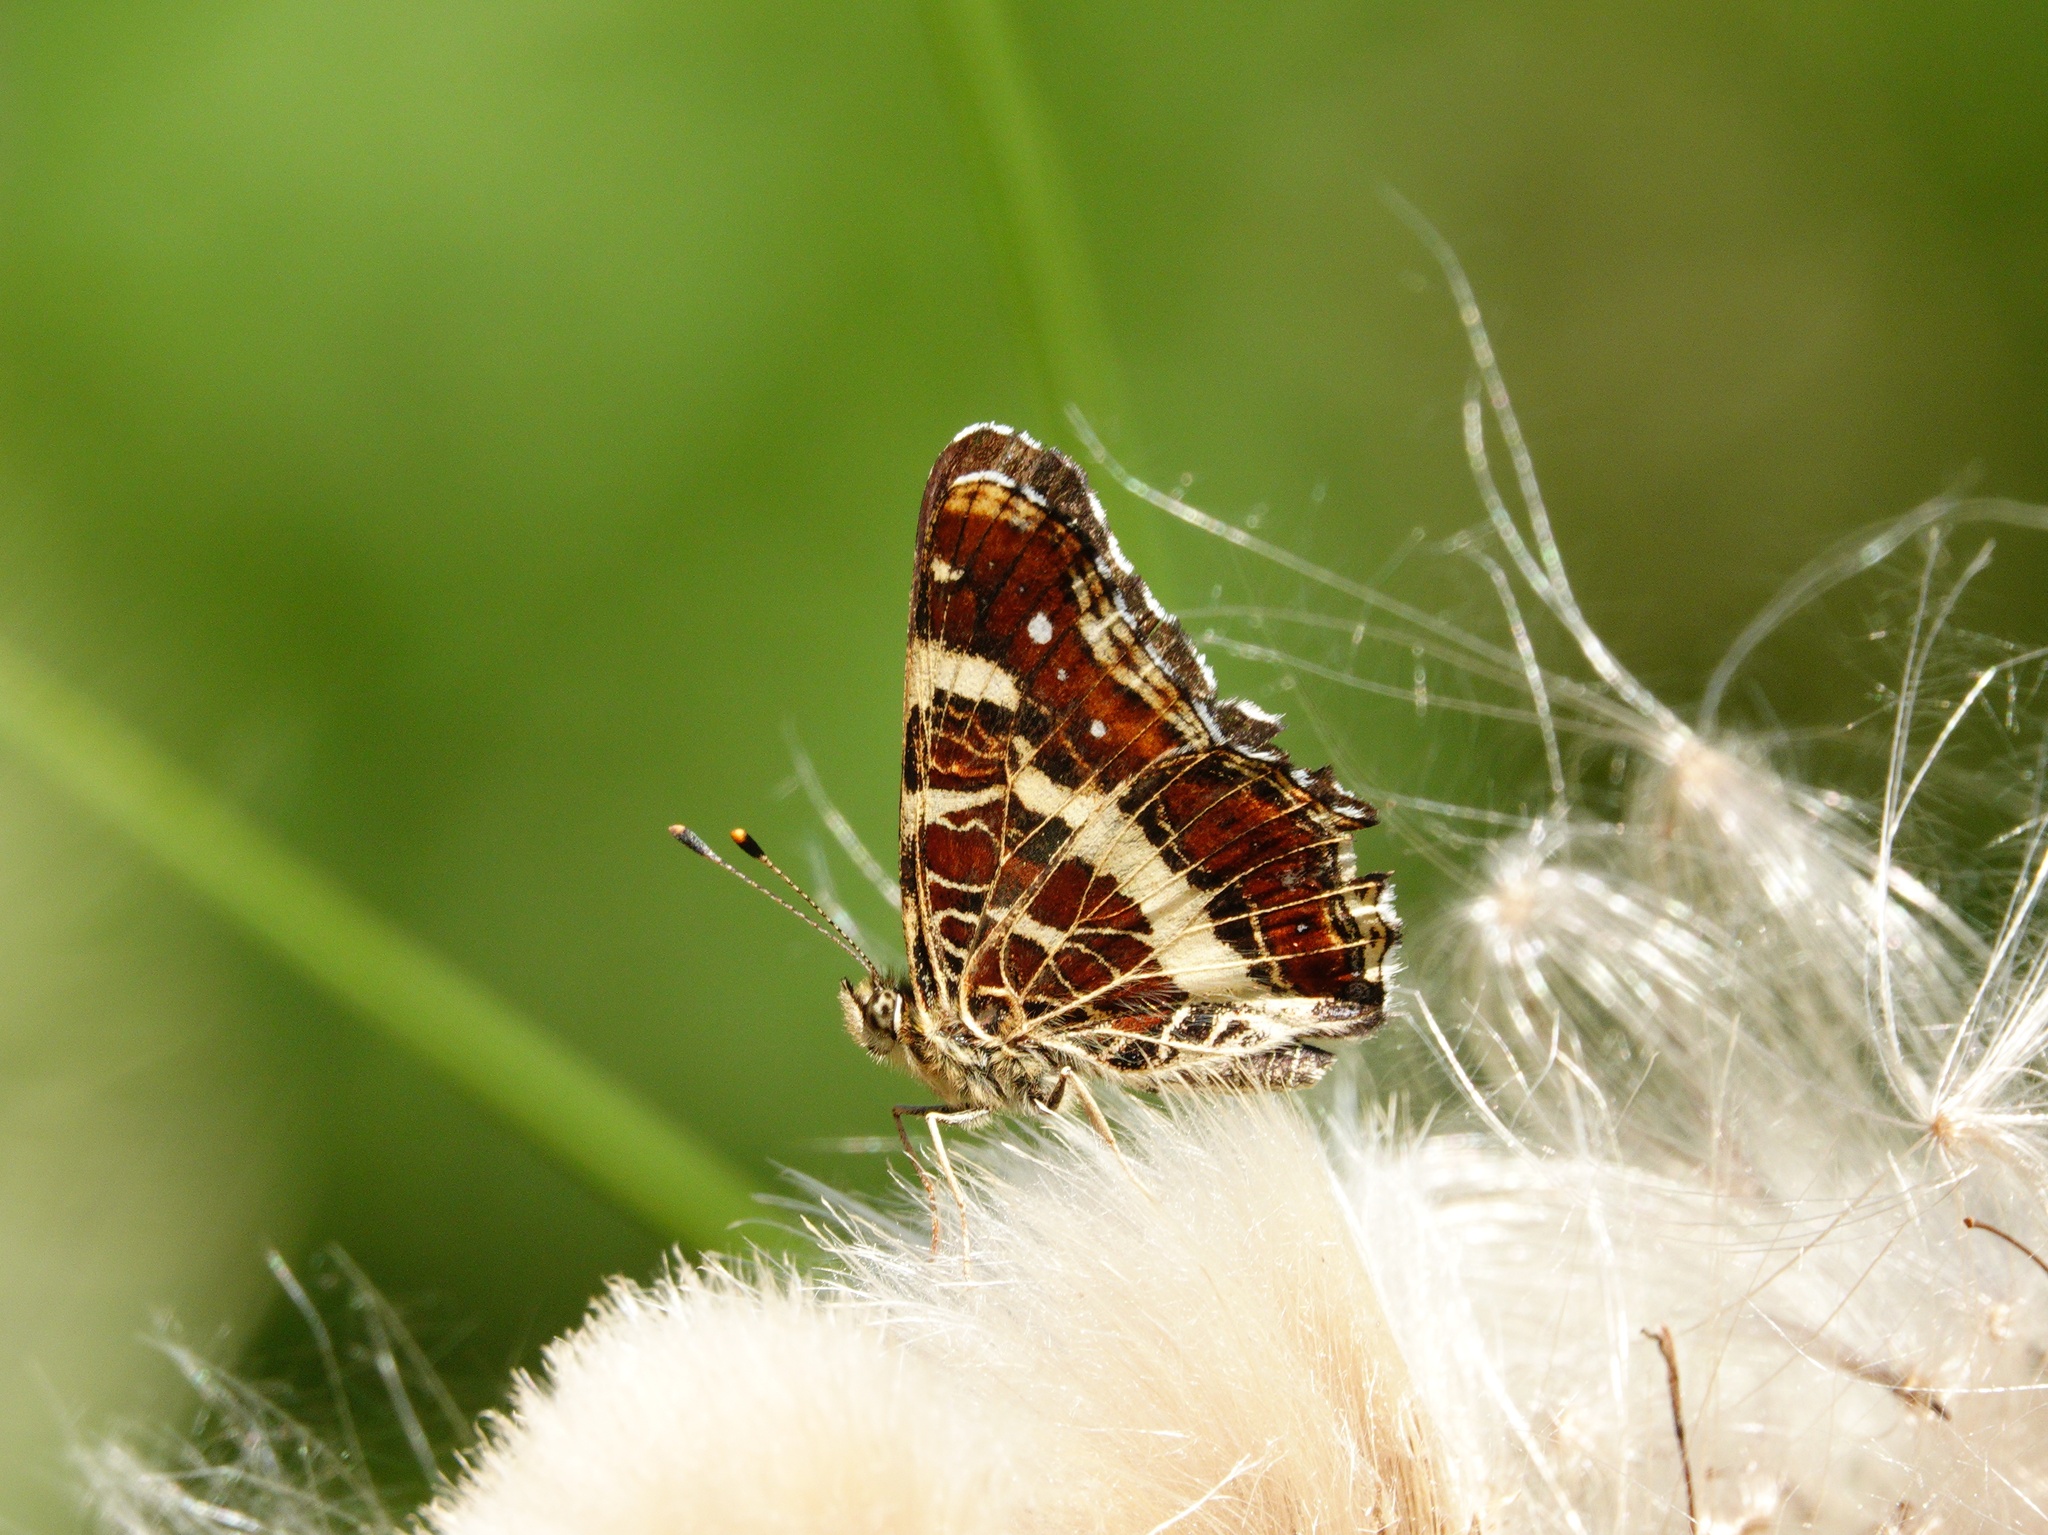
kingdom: Animalia
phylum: Arthropoda
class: Insecta
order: Lepidoptera
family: Nymphalidae
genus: Araschnia
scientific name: Araschnia levana
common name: Map butterfly
